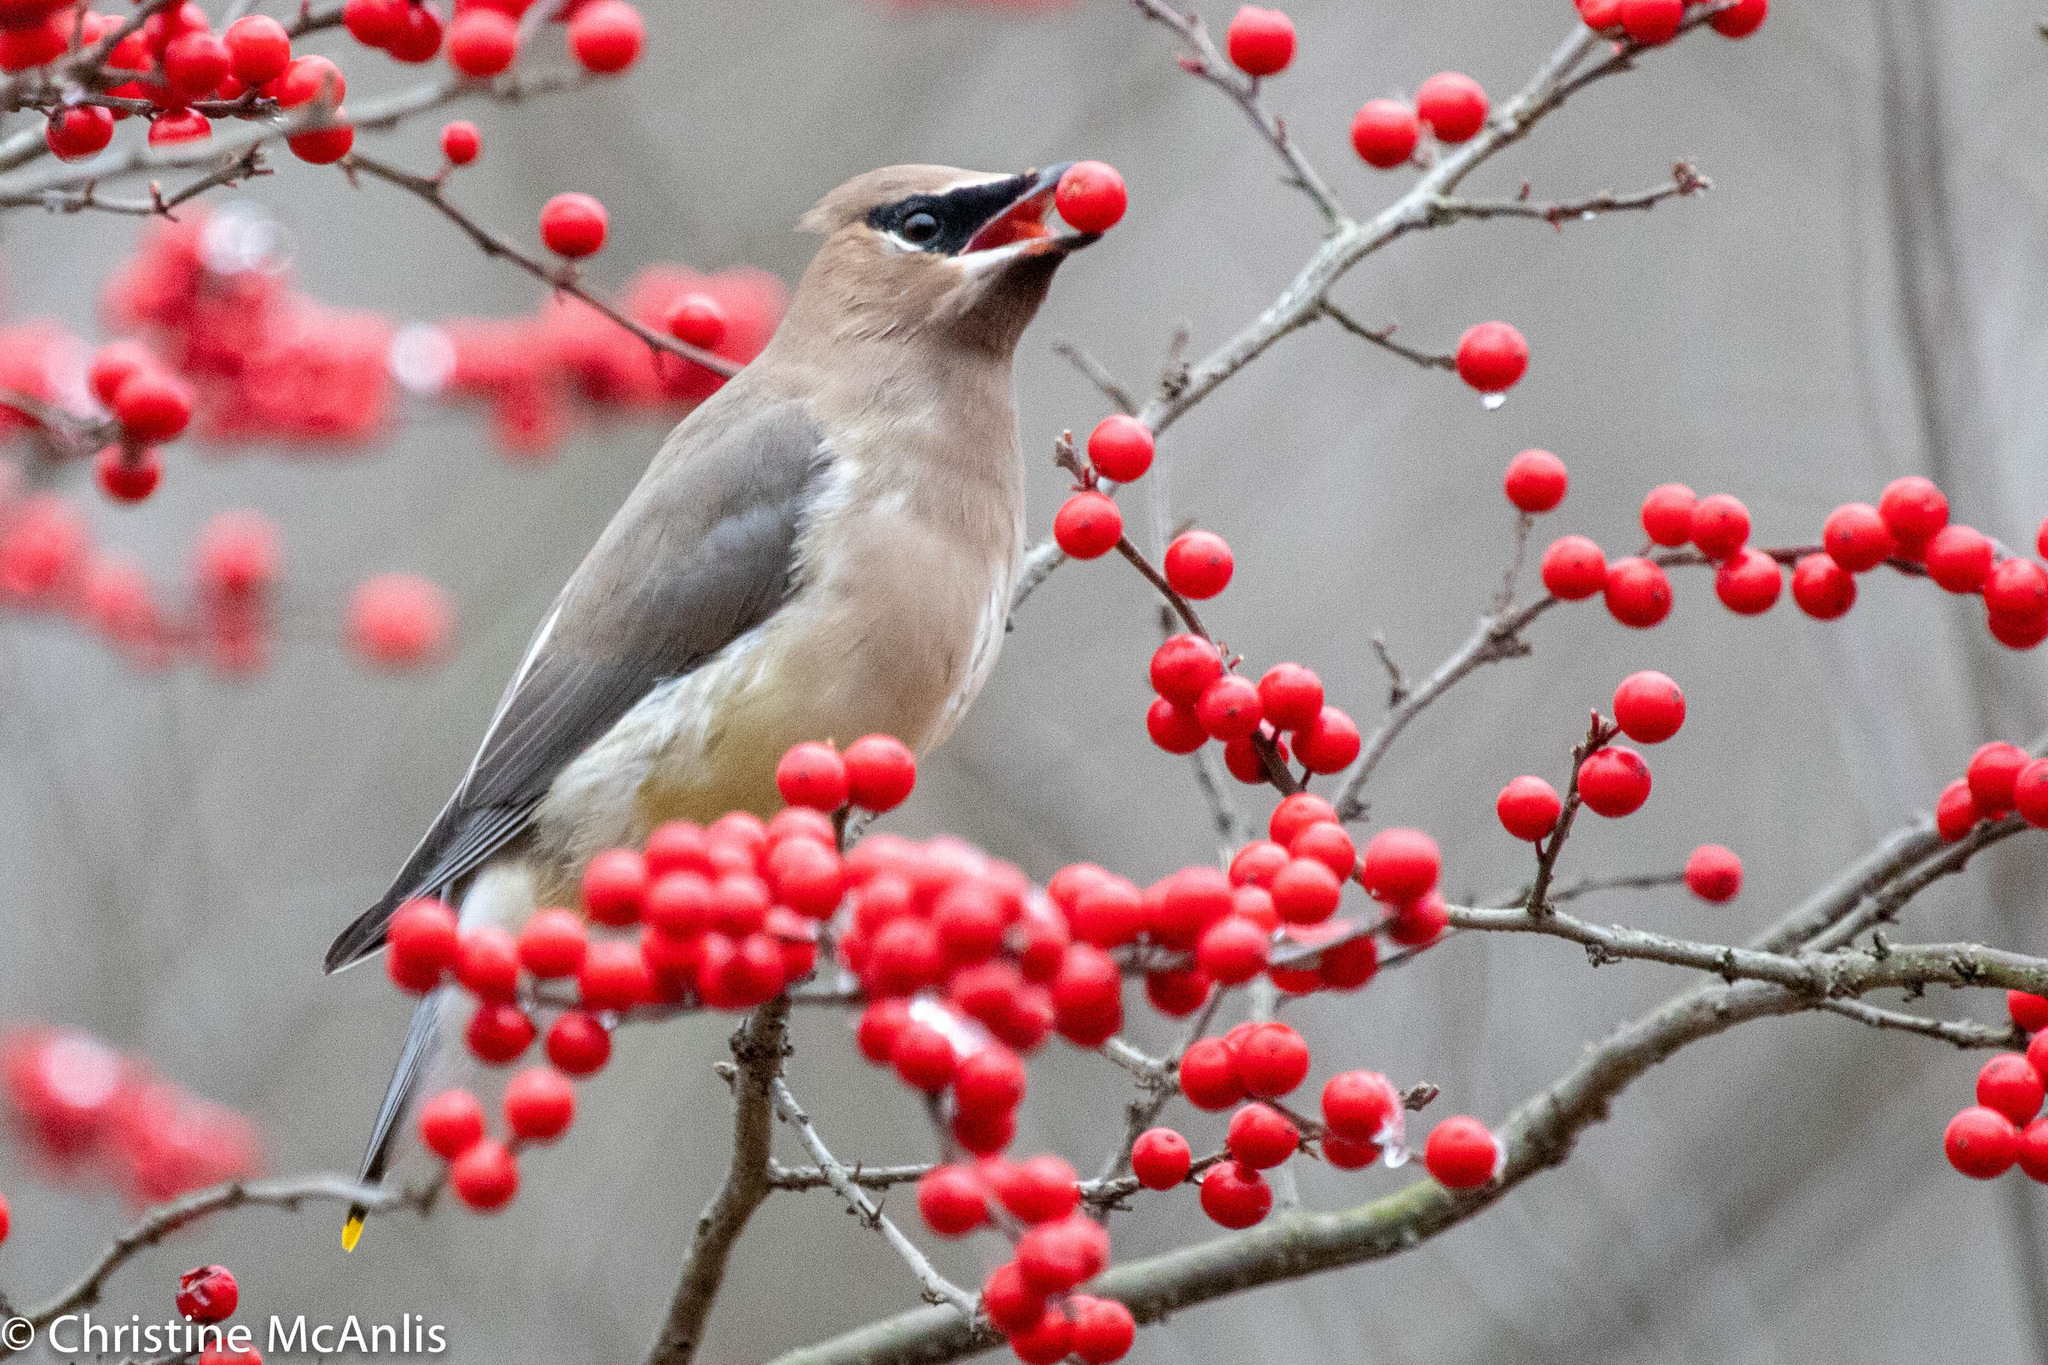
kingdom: Animalia
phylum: Chordata
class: Aves
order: Passeriformes
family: Bombycillidae
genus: Bombycilla
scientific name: Bombycilla cedrorum
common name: Cedar waxwing
